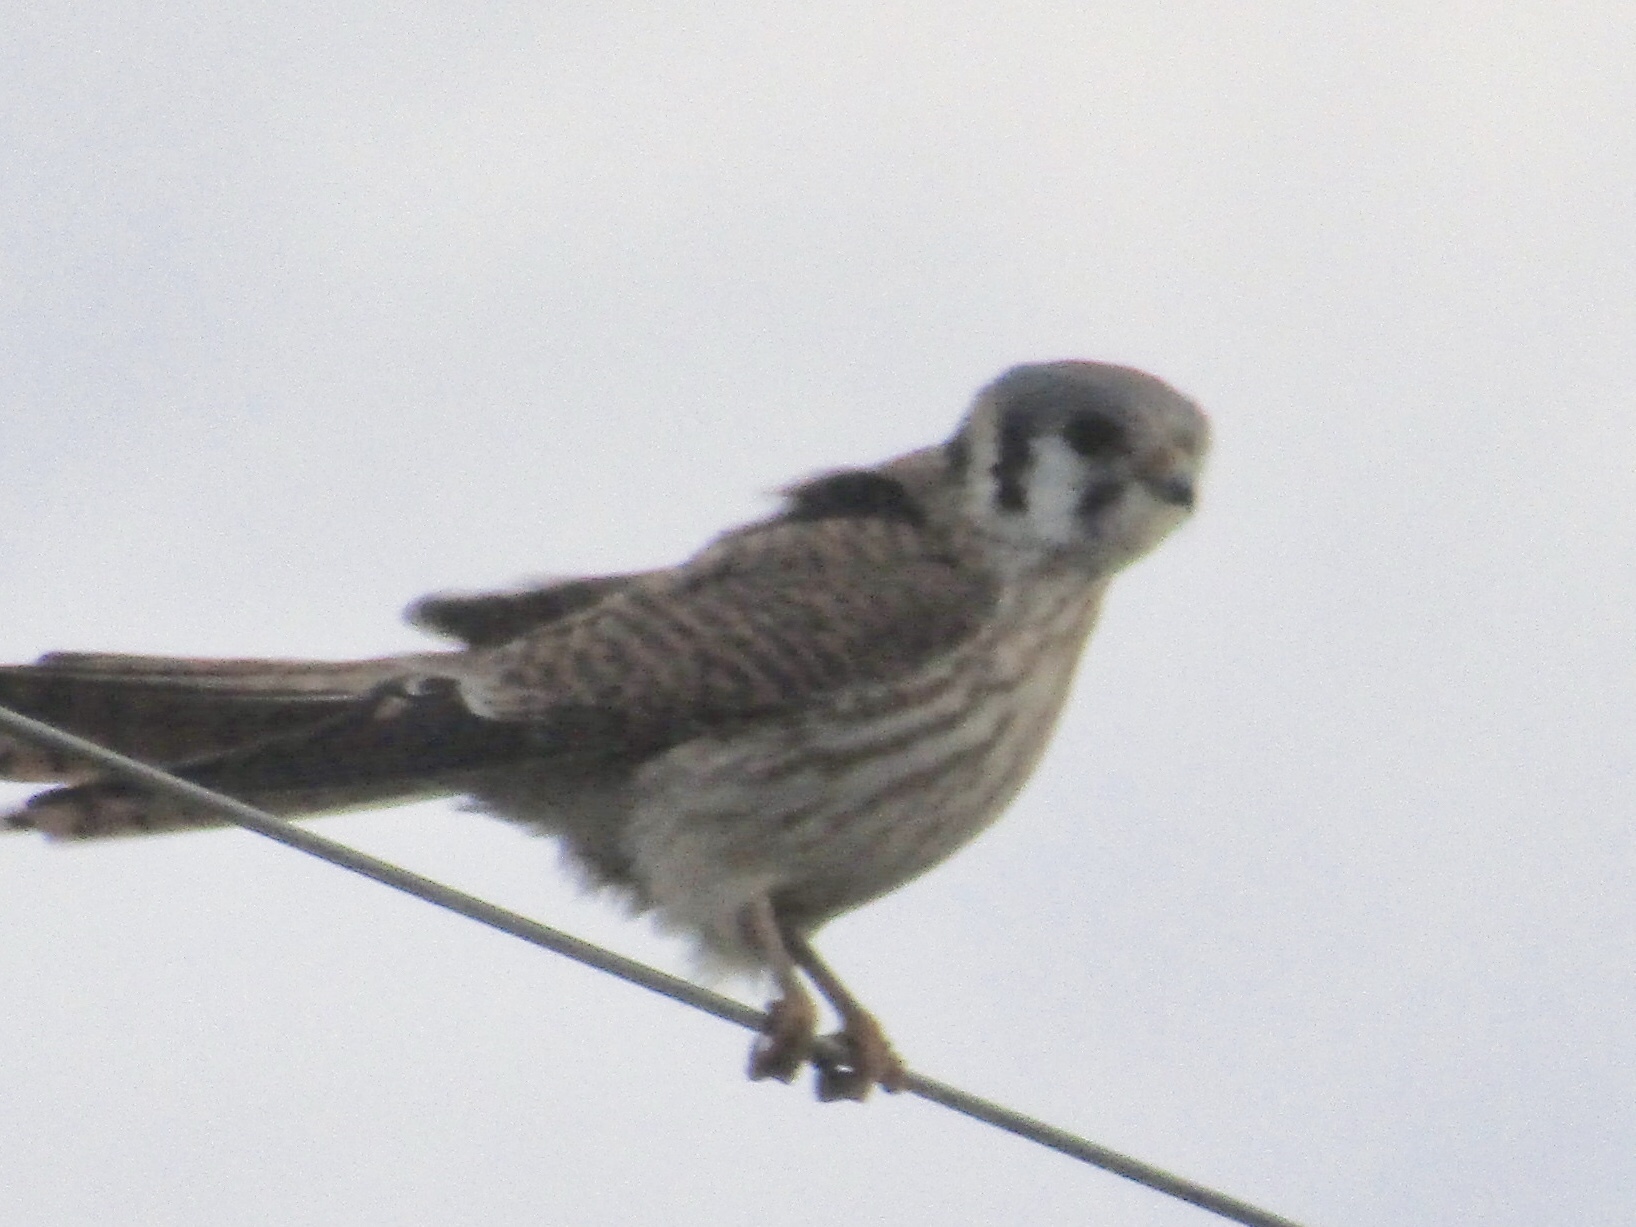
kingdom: Animalia
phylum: Chordata
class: Aves
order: Falconiformes
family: Falconidae
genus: Falco
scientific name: Falco sparverius
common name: American kestrel
